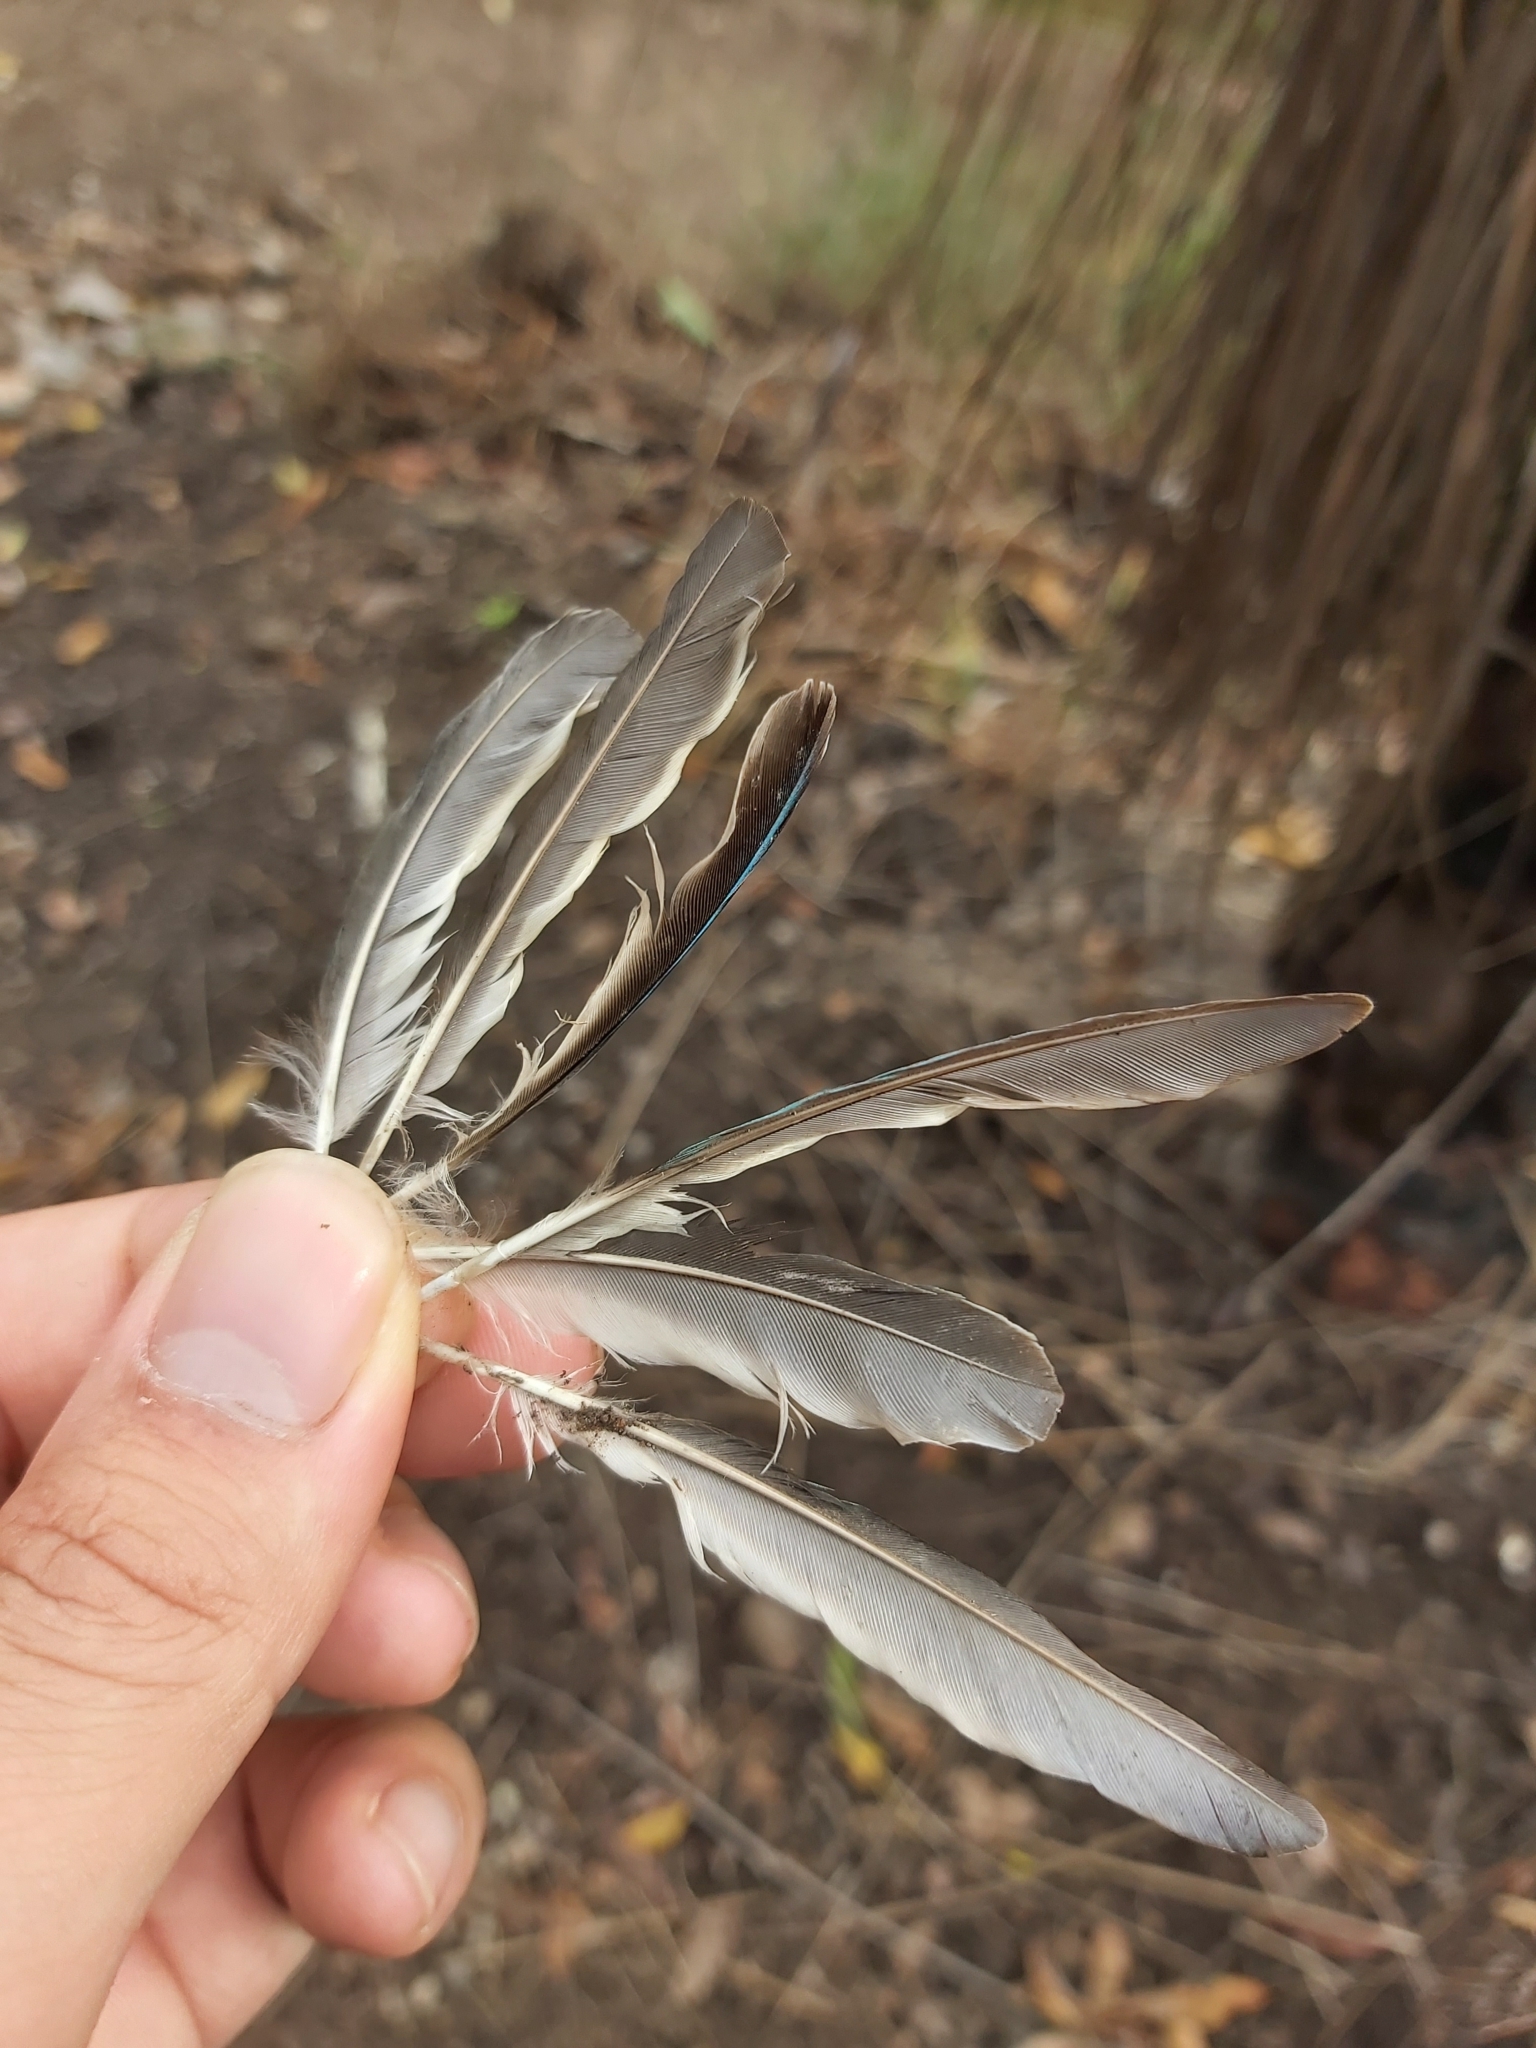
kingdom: Animalia
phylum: Chordata
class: Aves
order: Coraciiformes
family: Alcedinidae
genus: Todiramphus
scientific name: Todiramphus sanctus
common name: Sacred kingfisher
